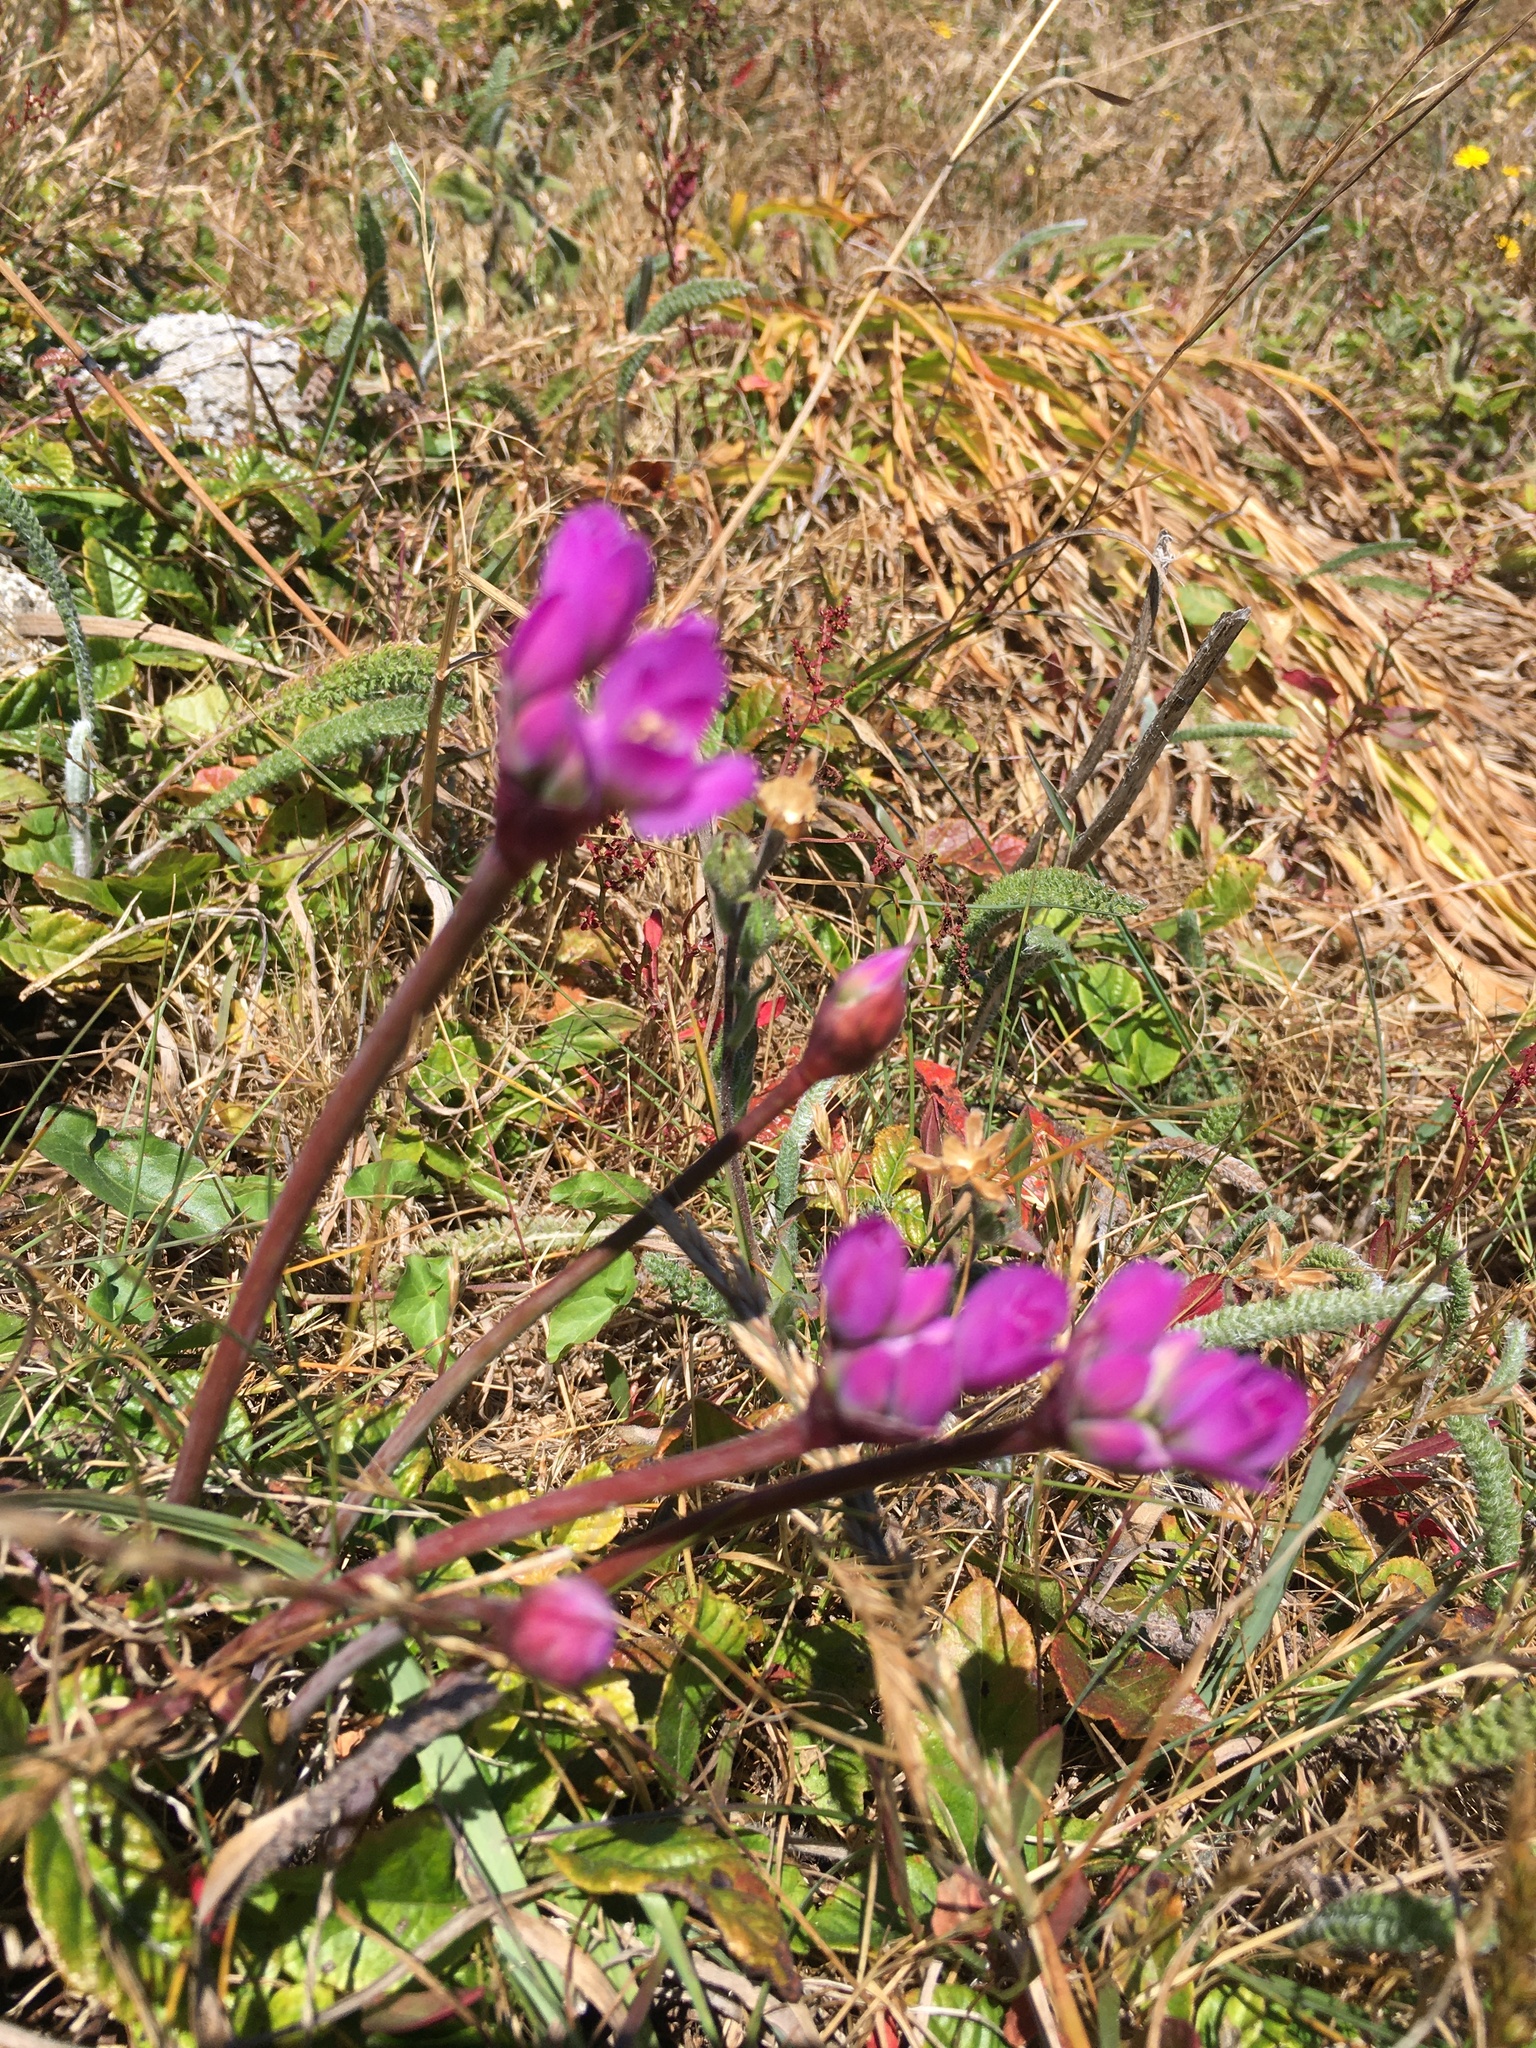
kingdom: Plantae
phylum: Tracheophyta
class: Liliopsida
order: Asparagales
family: Amaryllidaceae
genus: Allium
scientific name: Allium dichlamydeum
